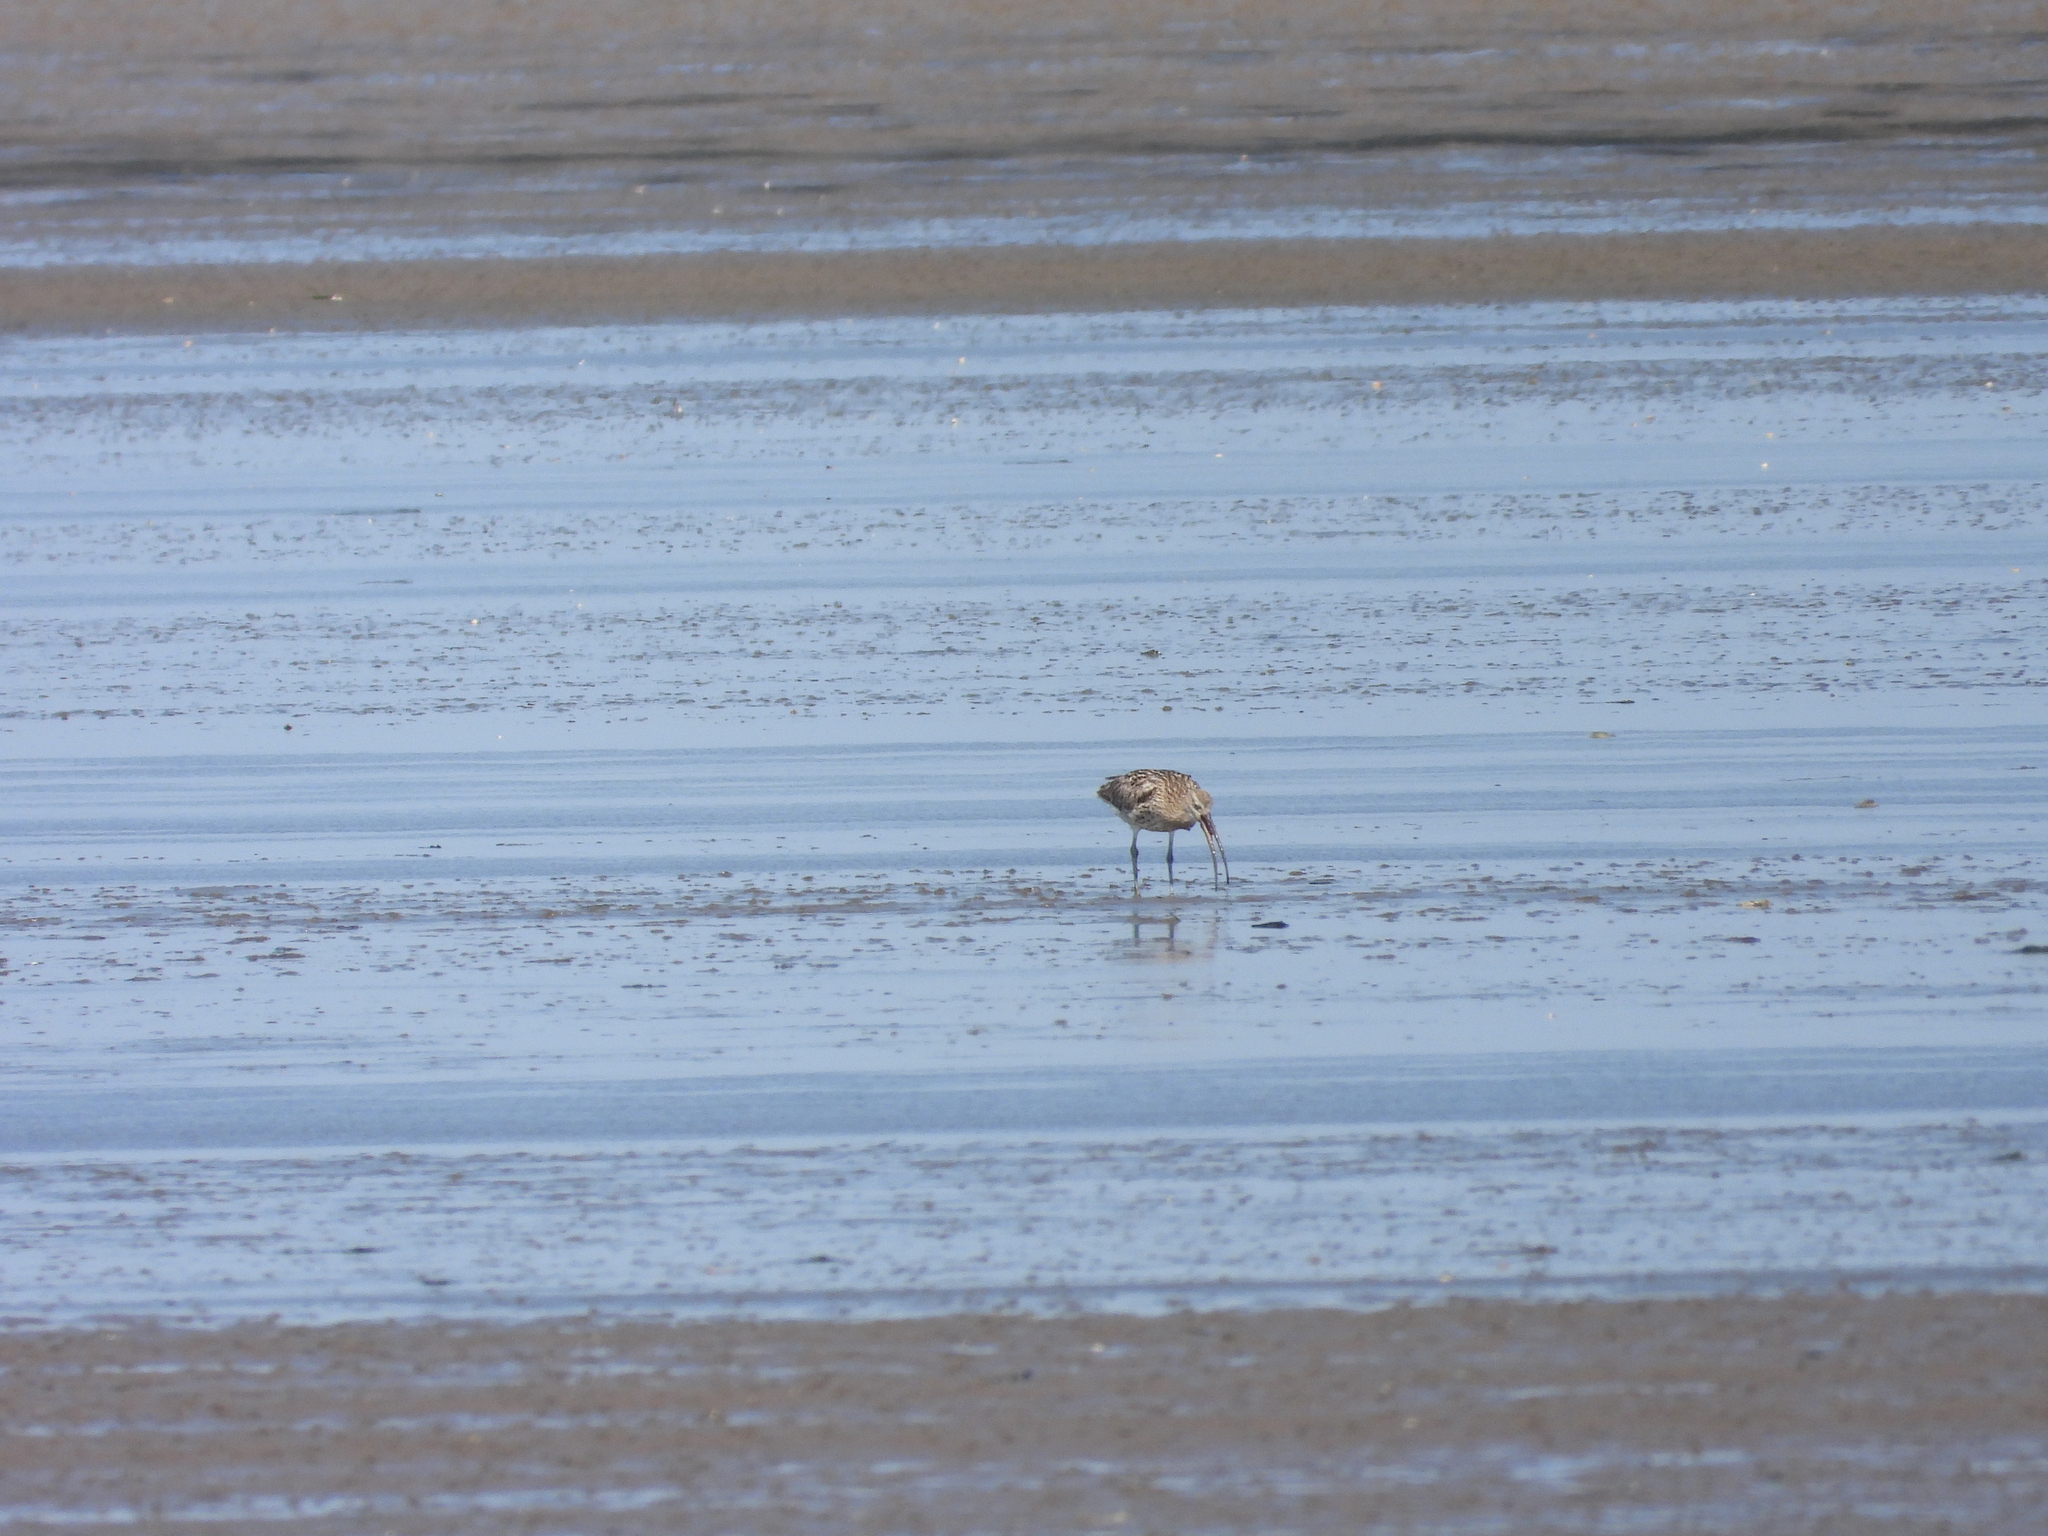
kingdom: Animalia
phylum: Chordata
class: Aves
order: Charadriiformes
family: Scolopacidae
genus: Numenius
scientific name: Numenius arquata
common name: Eurasian curlew
